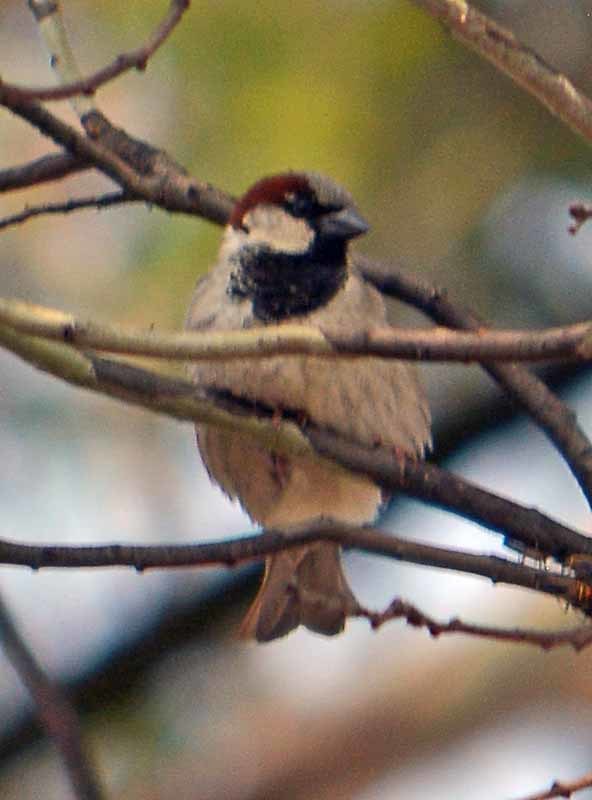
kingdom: Animalia
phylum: Chordata
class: Aves
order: Passeriformes
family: Passeridae
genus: Passer
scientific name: Passer domesticus
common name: House sparrow
